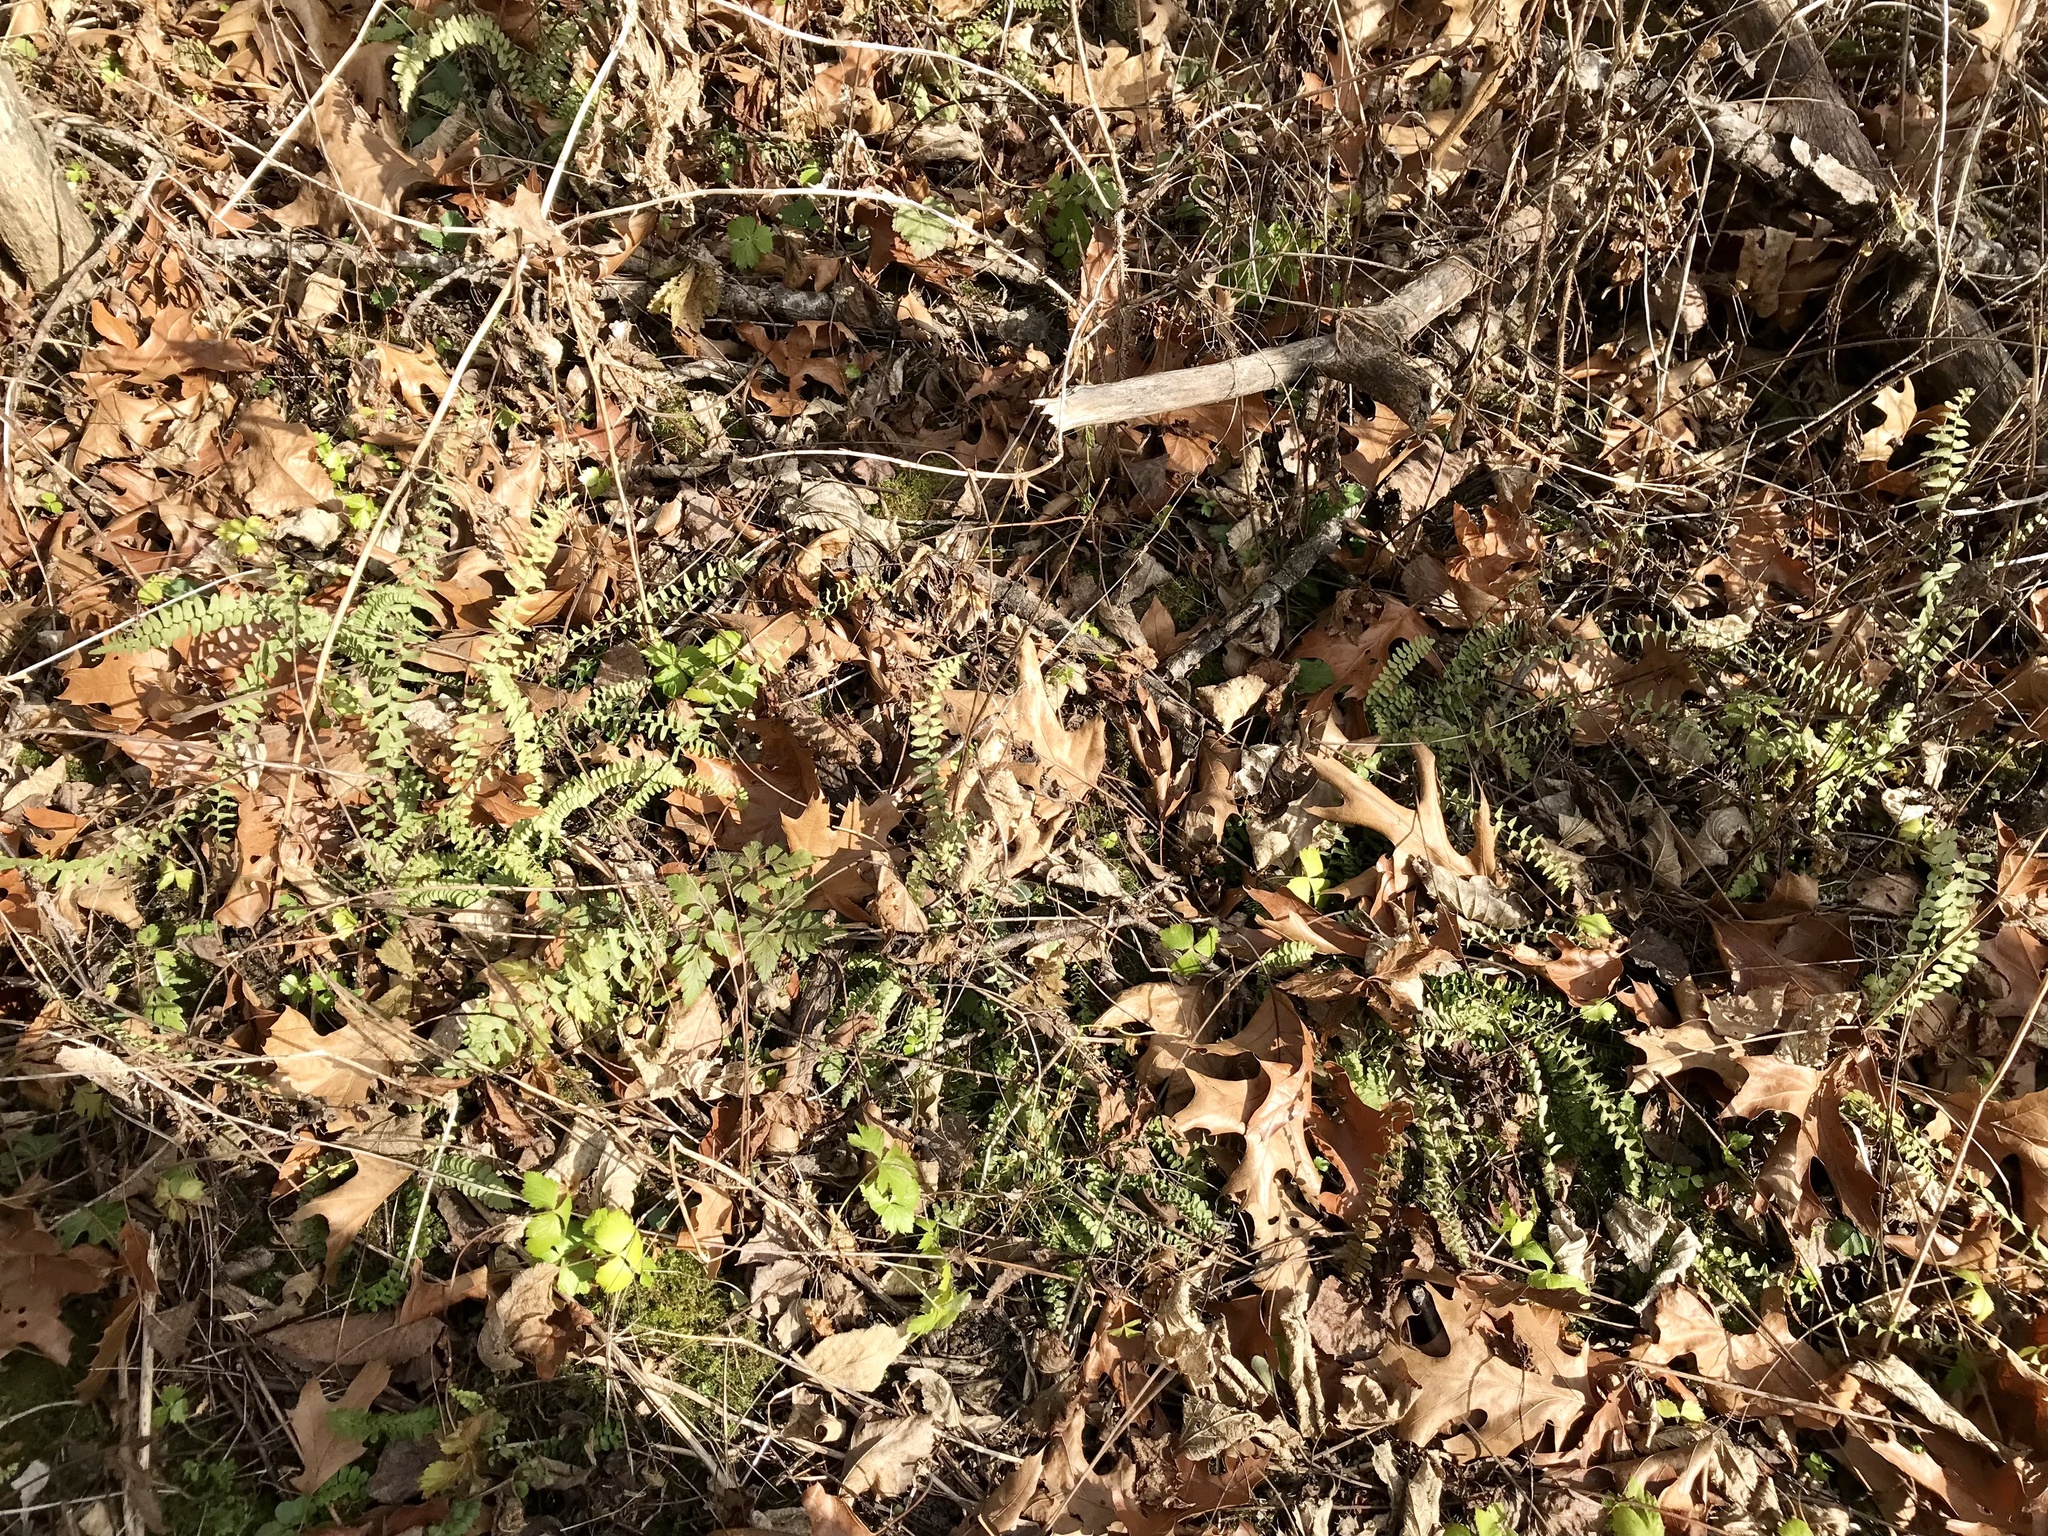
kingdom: Plantae
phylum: Tracheophyta
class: Polypodiopsida
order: Polypodiales
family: Aspleniaceae
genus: Asplenium
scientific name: Asplenium platyneuron
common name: Ebony spleenwort
